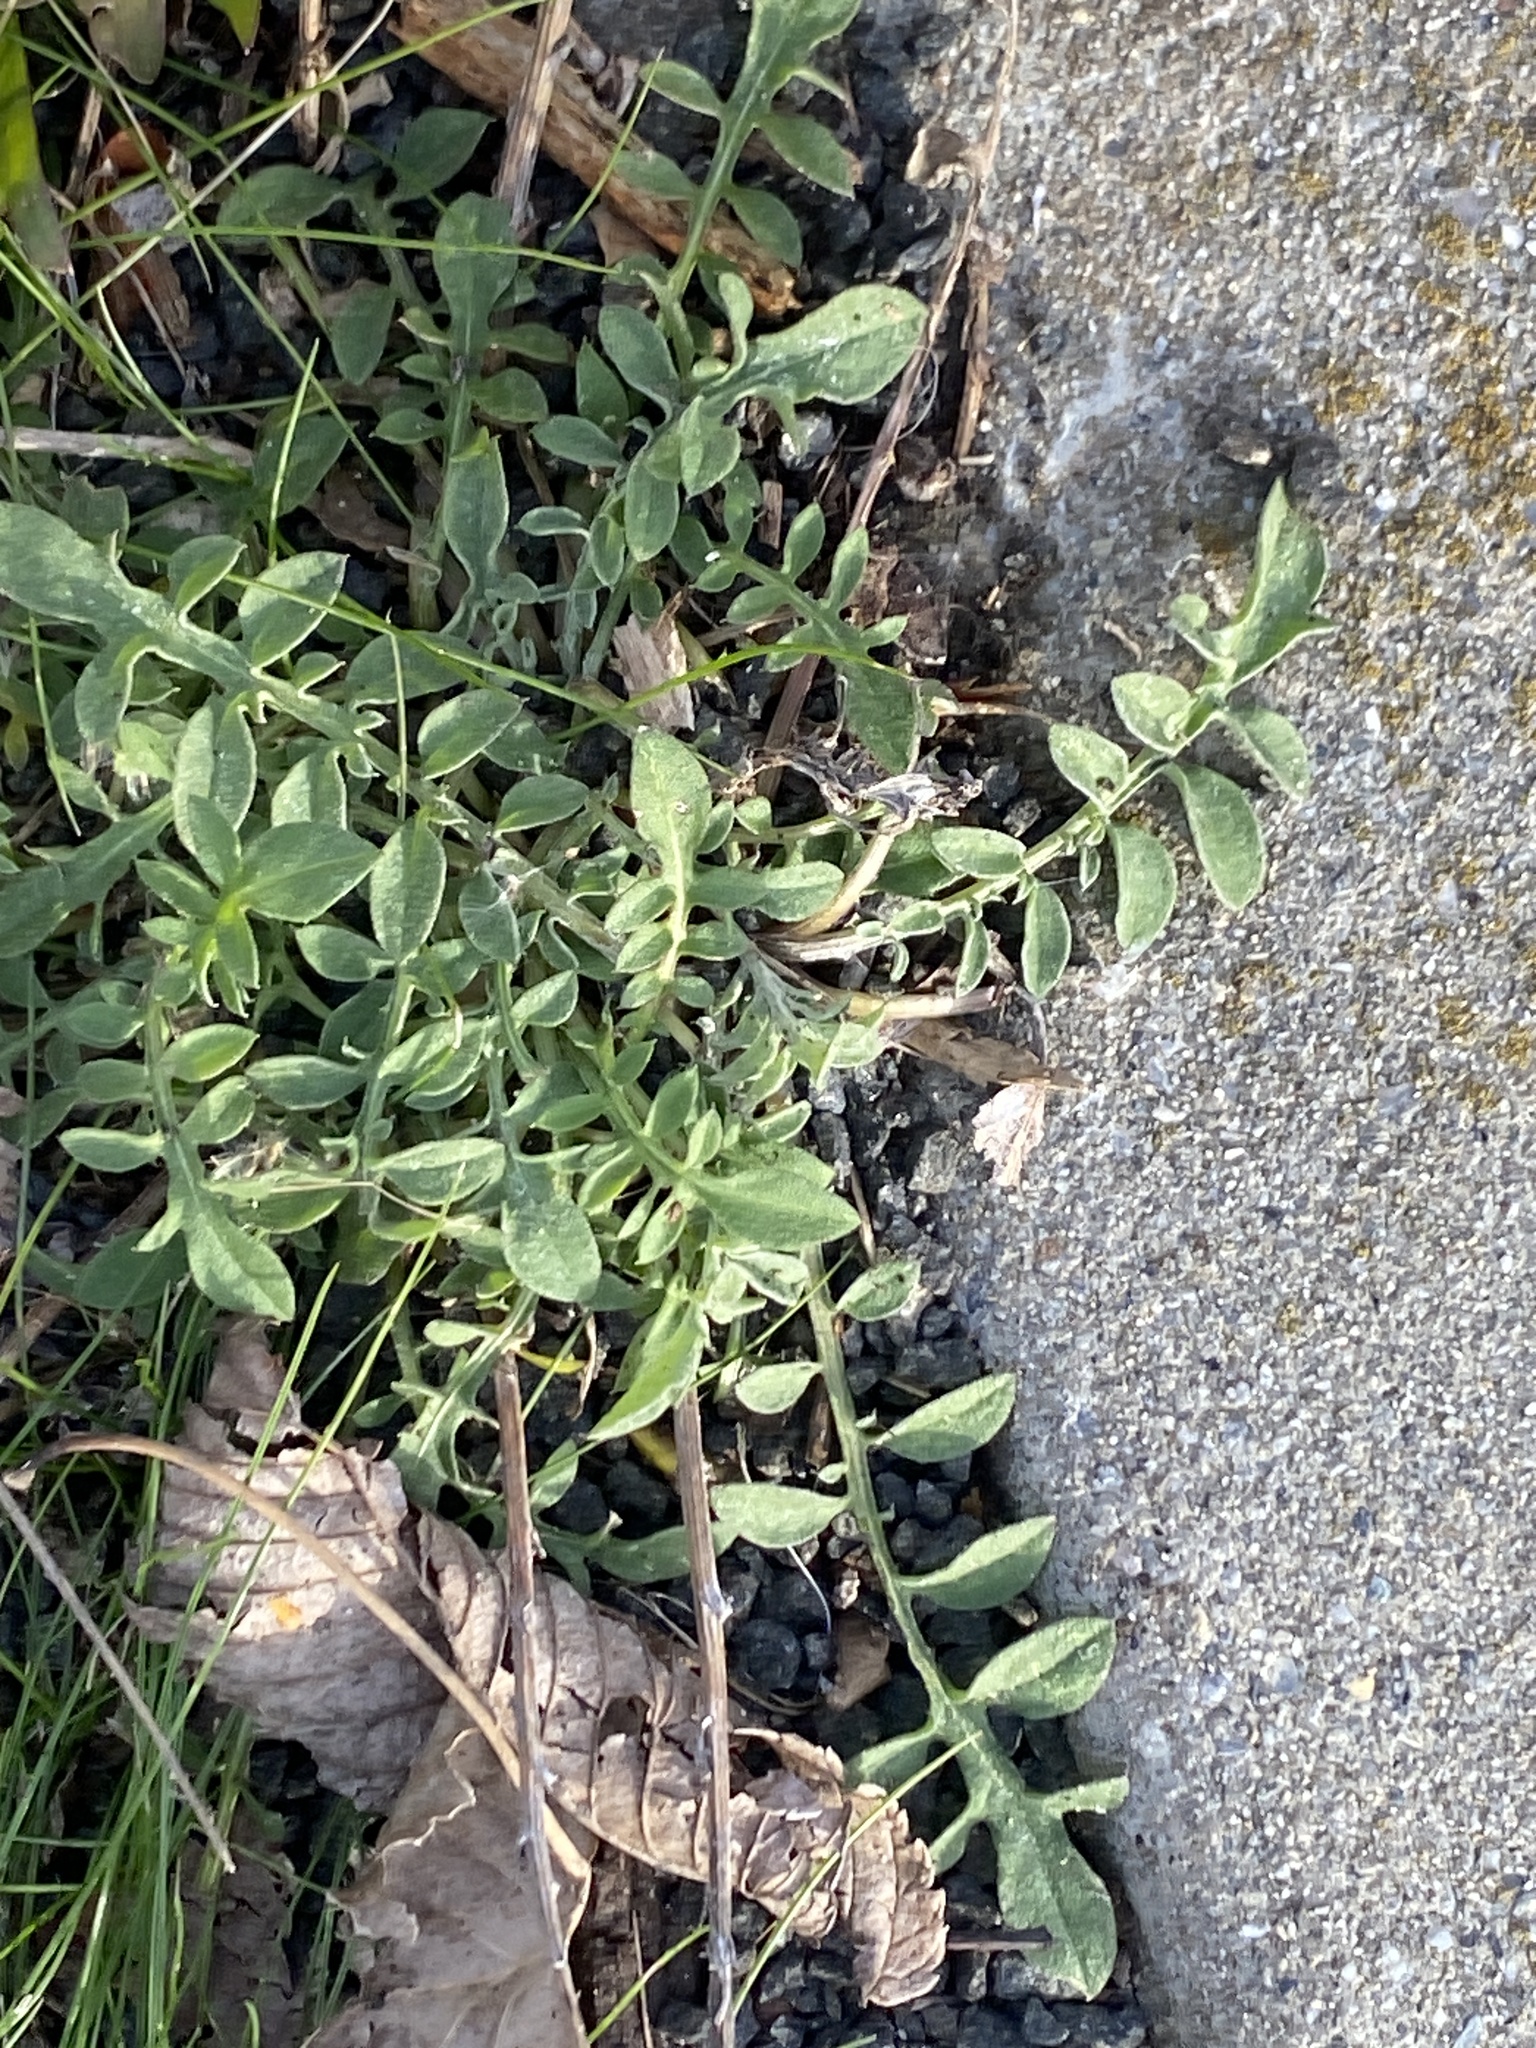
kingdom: Plantae
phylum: Tracheophyta
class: Magnoliopsida
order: Asterales
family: Asteraceae
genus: Centaurea
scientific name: Centaurea stoebe
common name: Spotted knapweed
